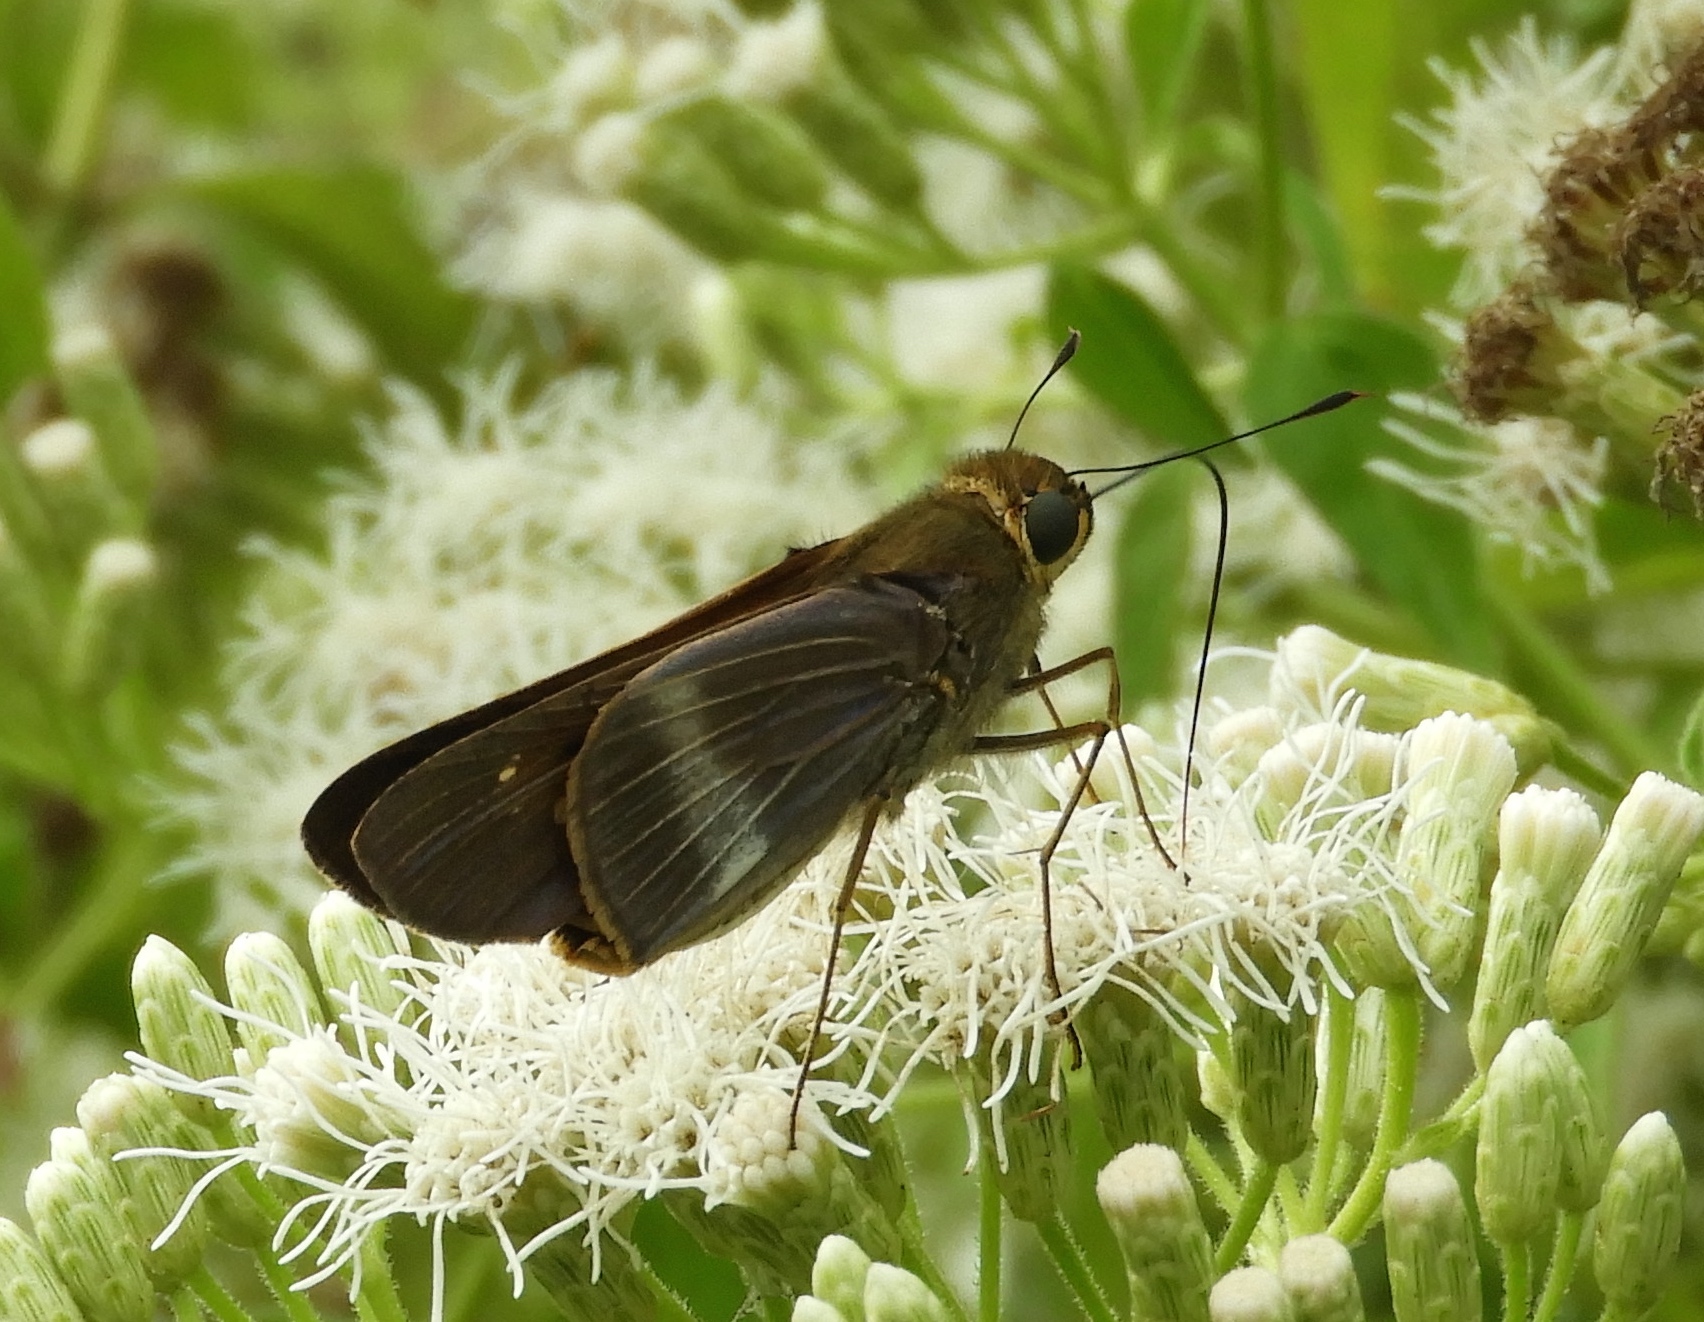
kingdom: Animalia
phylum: Arthropoda
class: Insecta
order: Lepidoptera
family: Hesperiidae
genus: Panoquina
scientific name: Panoquina fusina
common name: Evans' skipper
